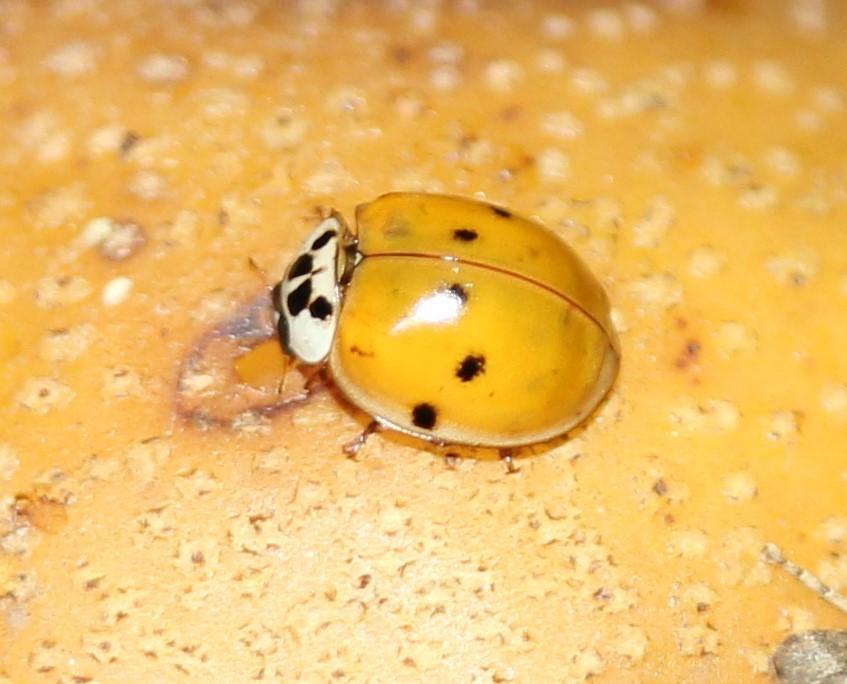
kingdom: Animalia
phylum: Arthropoda
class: Insecta
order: Coleoptera
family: Coccinellidae
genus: Harmonia
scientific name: Harmonia axyridis
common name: Harlequin ladybird
